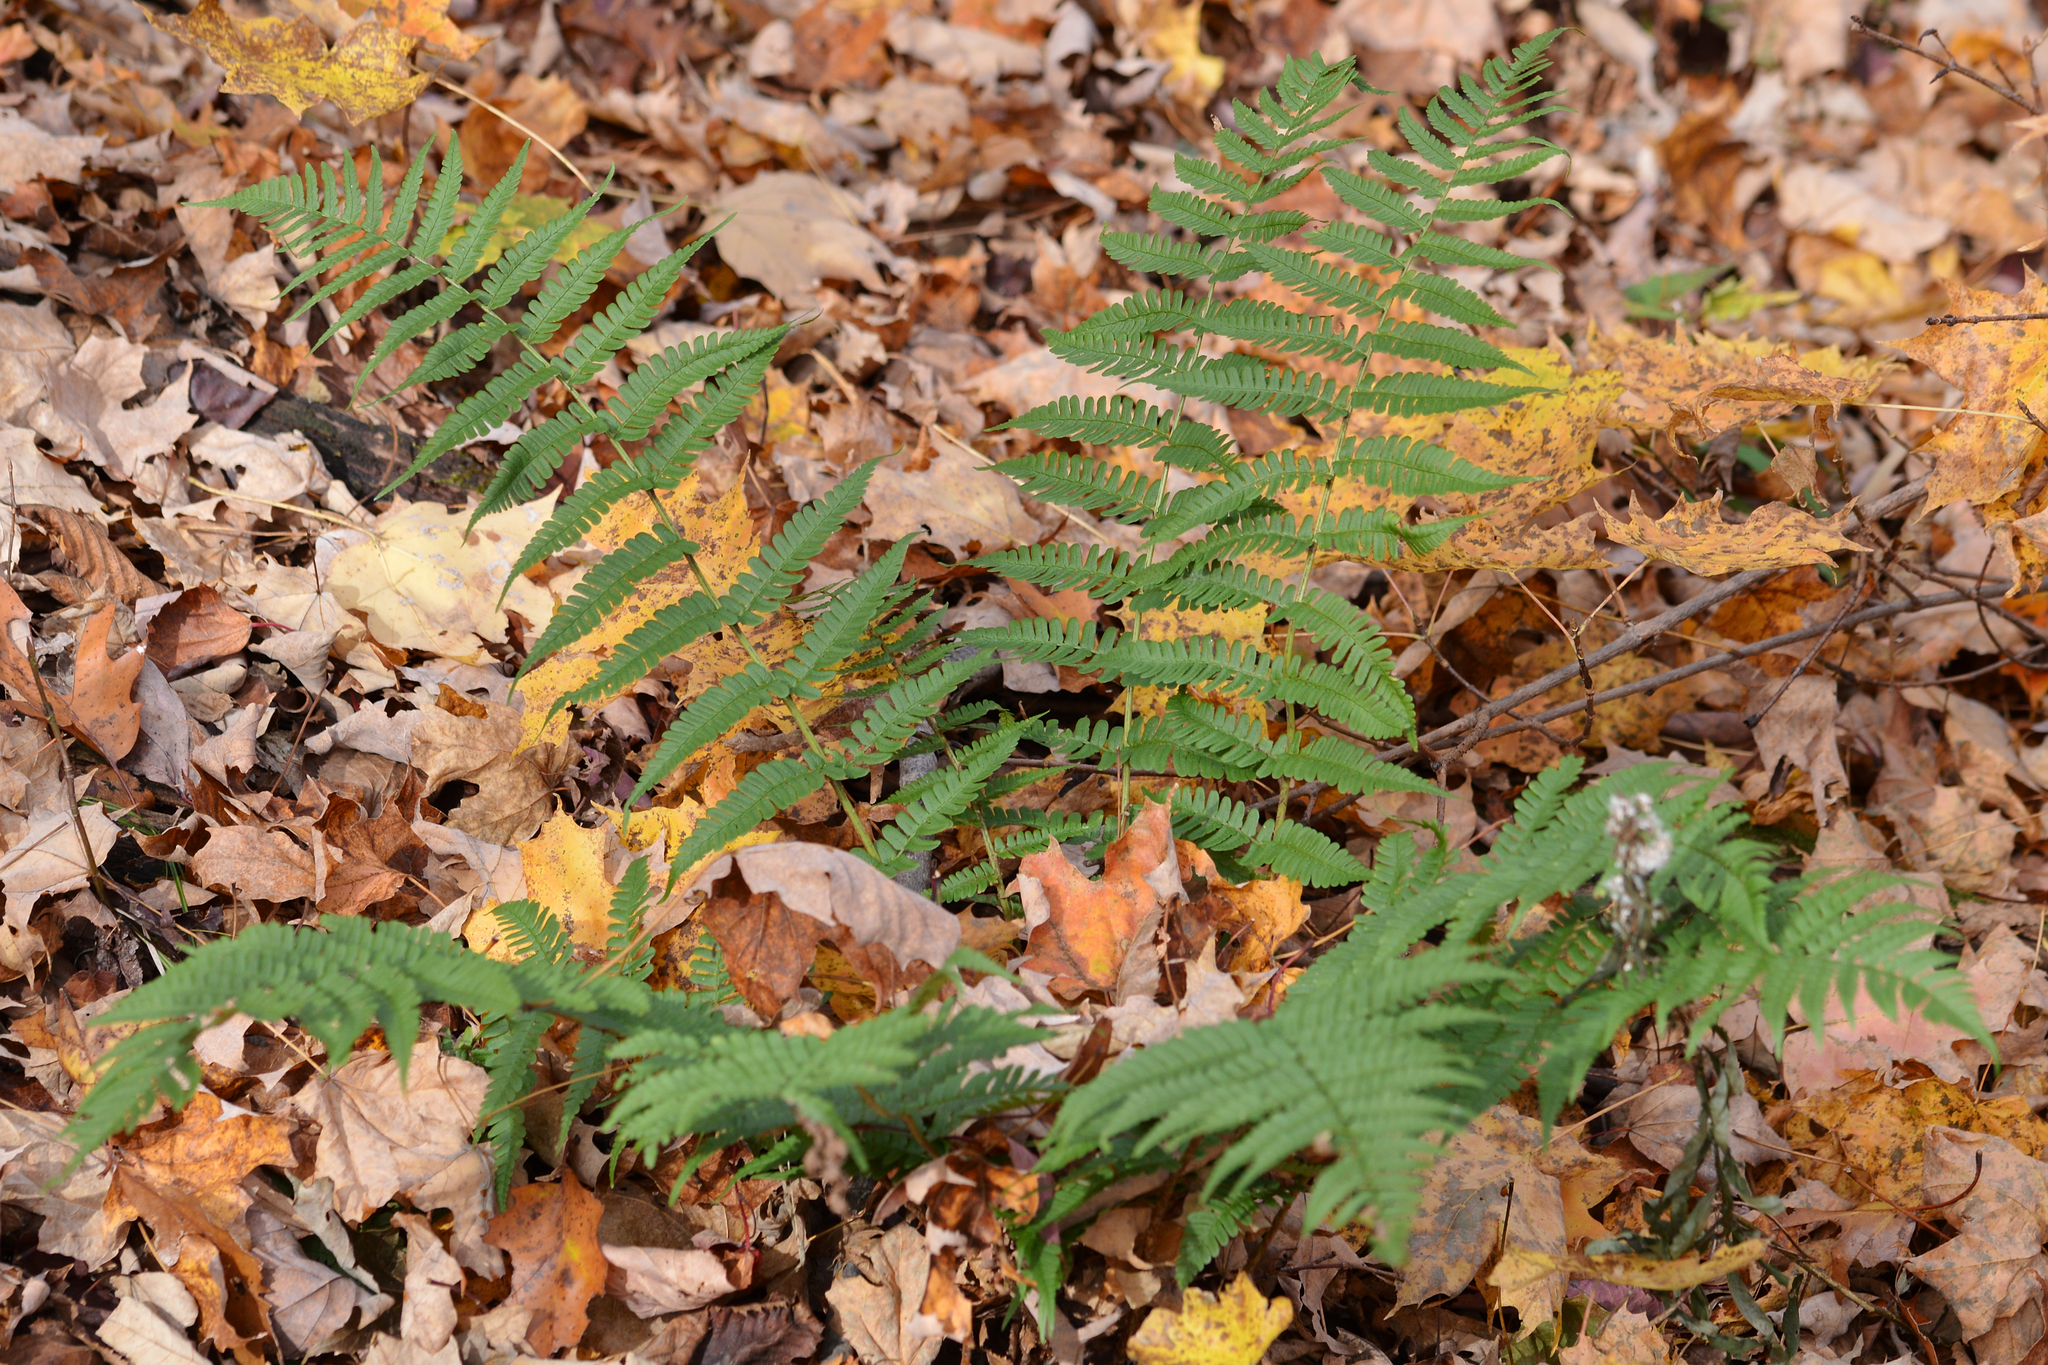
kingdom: Plantae
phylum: Tracheophyta
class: Polypodiopsida
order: Polypodiales
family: Dryopteridaceae
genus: Dryopteris
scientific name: Dryopteris marginalis
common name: Marginal wood fern
